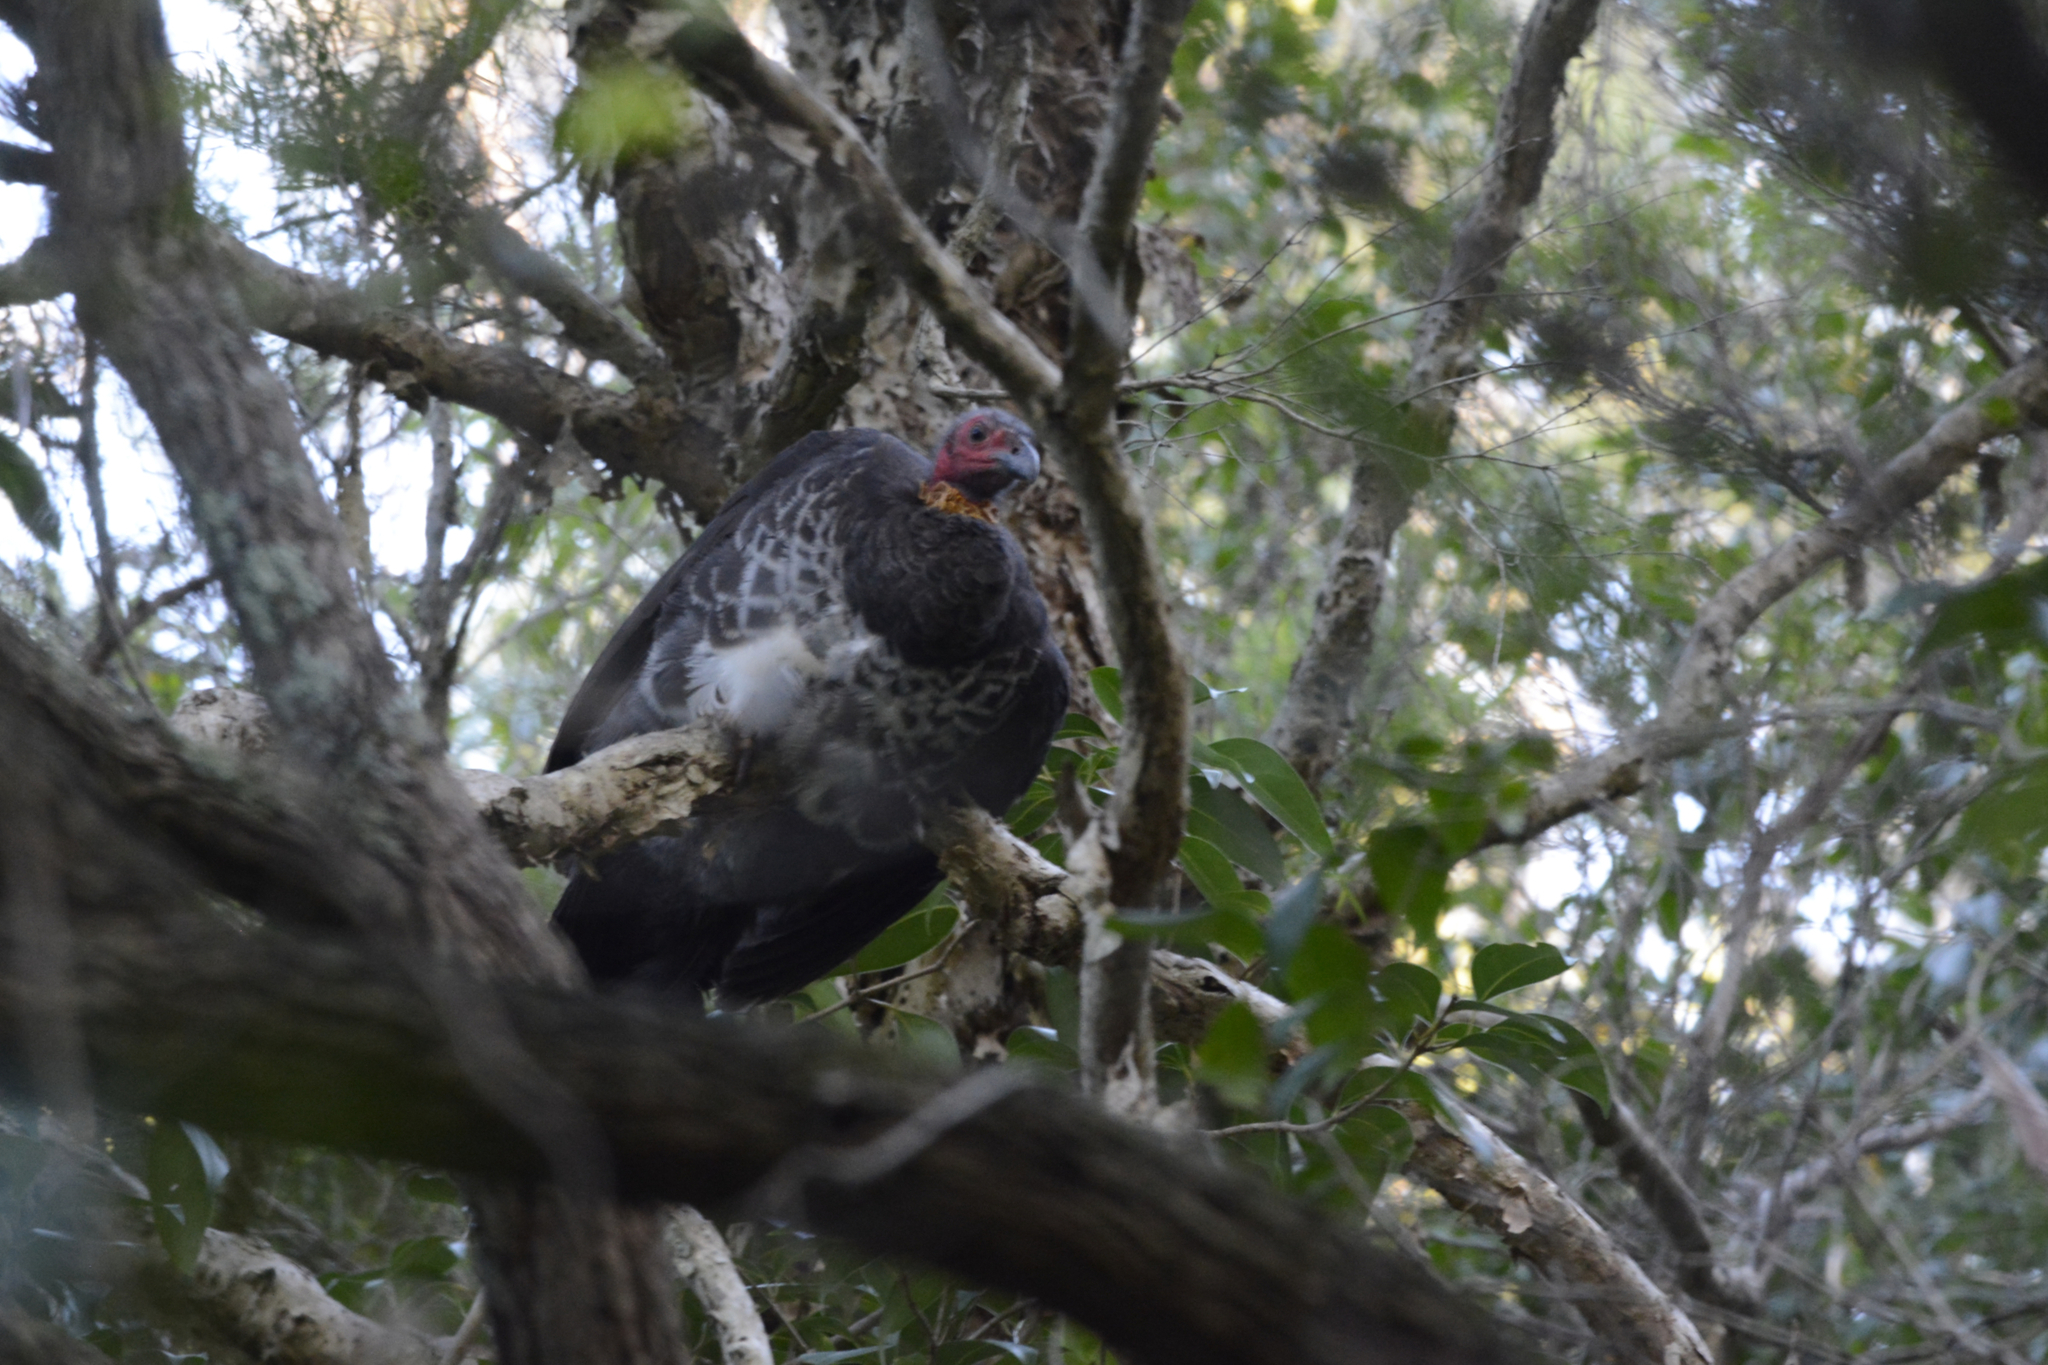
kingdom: Animalia
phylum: Chordata
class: Aves
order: Galliformes
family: Megapodiidae
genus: Alectura
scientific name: Alectura lathami
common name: Australian brushturkey
